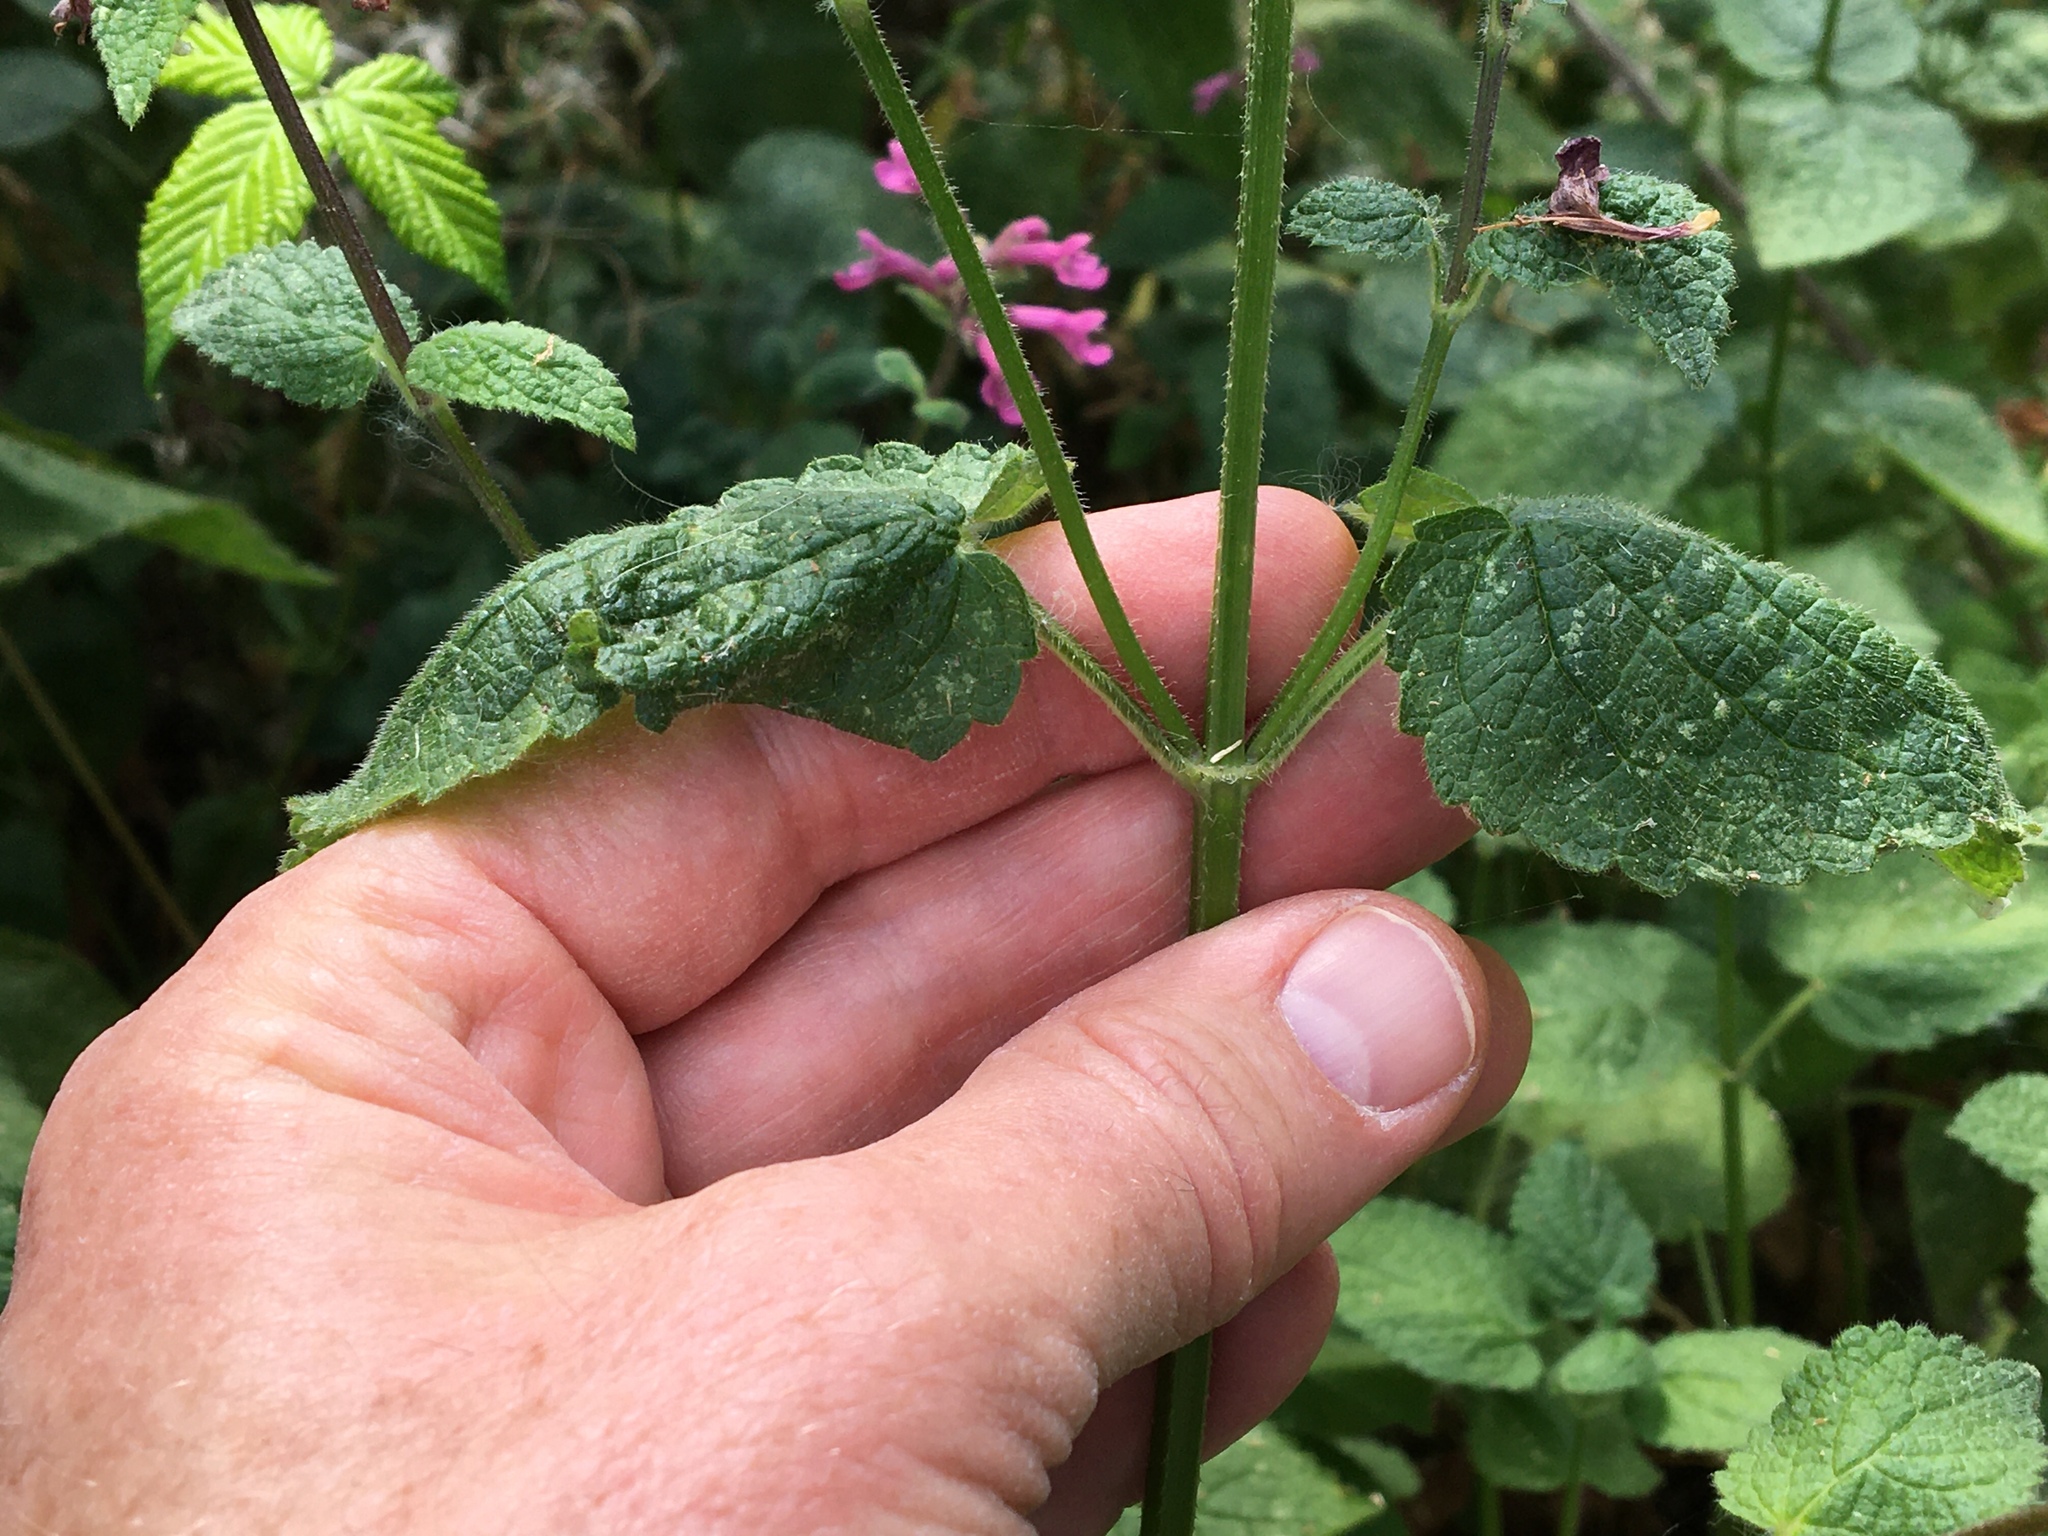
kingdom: Plantae
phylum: Tracheophyta
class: Magnoliopsida
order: Lamiales
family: Lamiaceae
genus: Stachys
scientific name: Stachys chamissonis
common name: Coastal hedge-nettle
